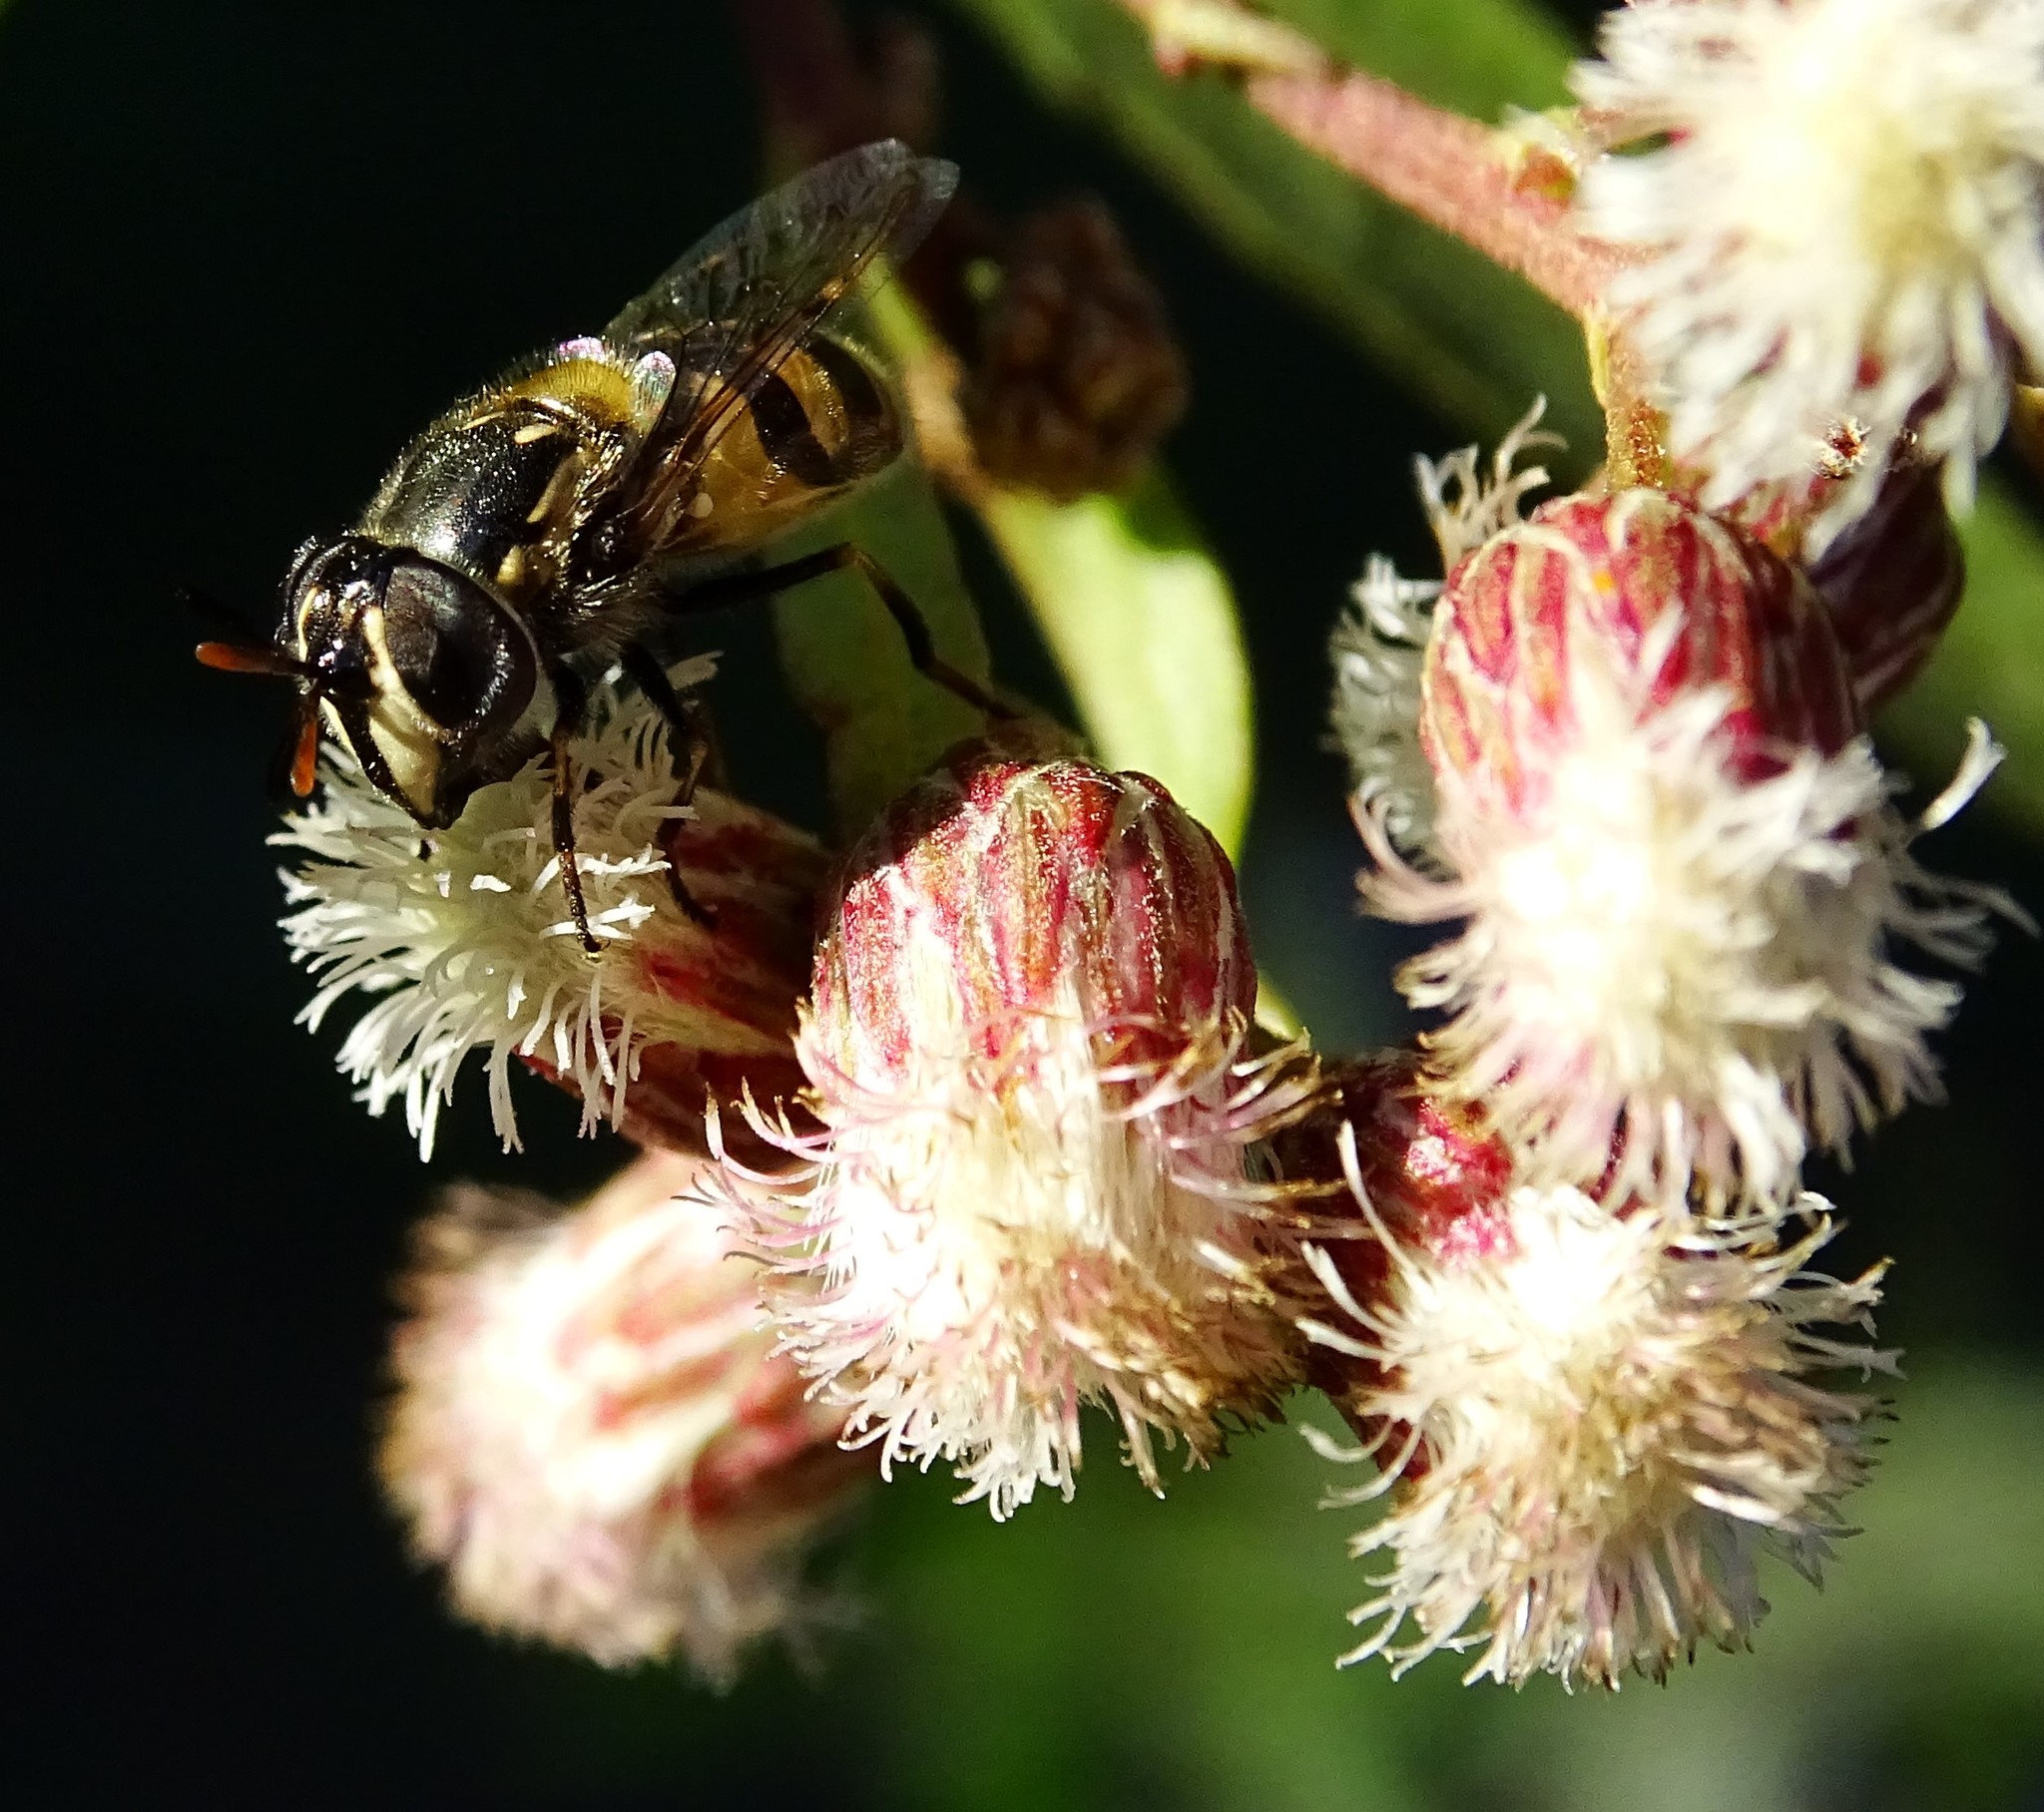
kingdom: Animalia
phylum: Arthropoda
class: Insecta
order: Diptera
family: Syrphidae
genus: Copestylum
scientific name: Copestylum marginatum
